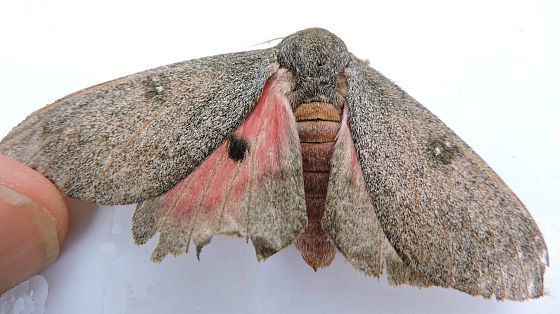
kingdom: Animalia
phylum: Arthropoda
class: Insecta
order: Lepidoptera
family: Saturniidae
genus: Syssphinx
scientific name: Syssphinx hubbardi
